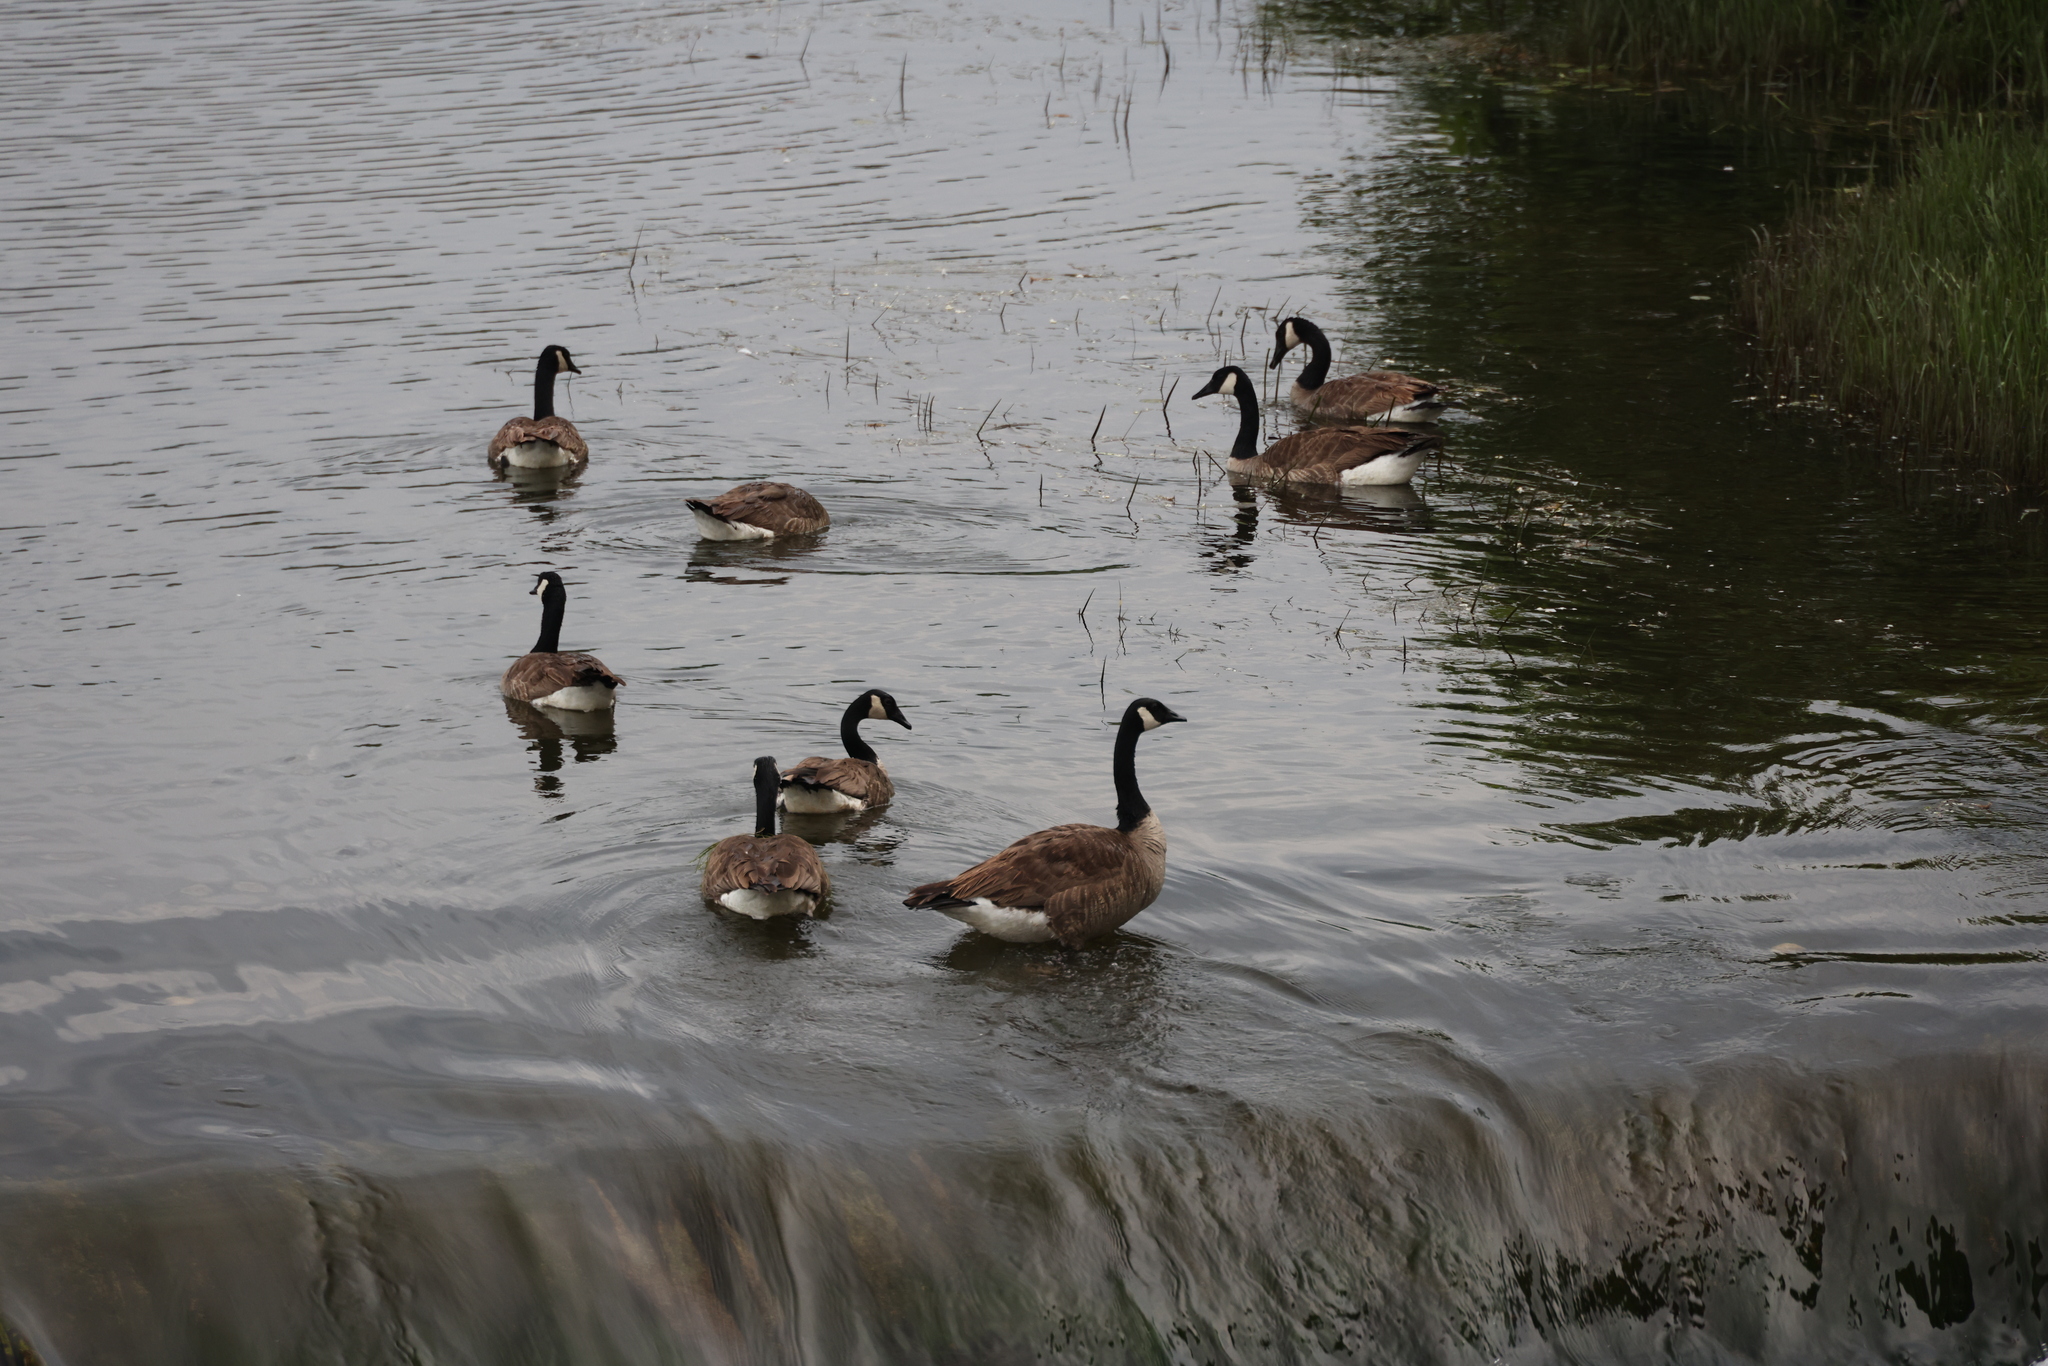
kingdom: Animalia
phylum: Chordata
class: Aves
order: Anseriformes
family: Anatidae
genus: Branta
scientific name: Branta canadensis
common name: Canada goose
